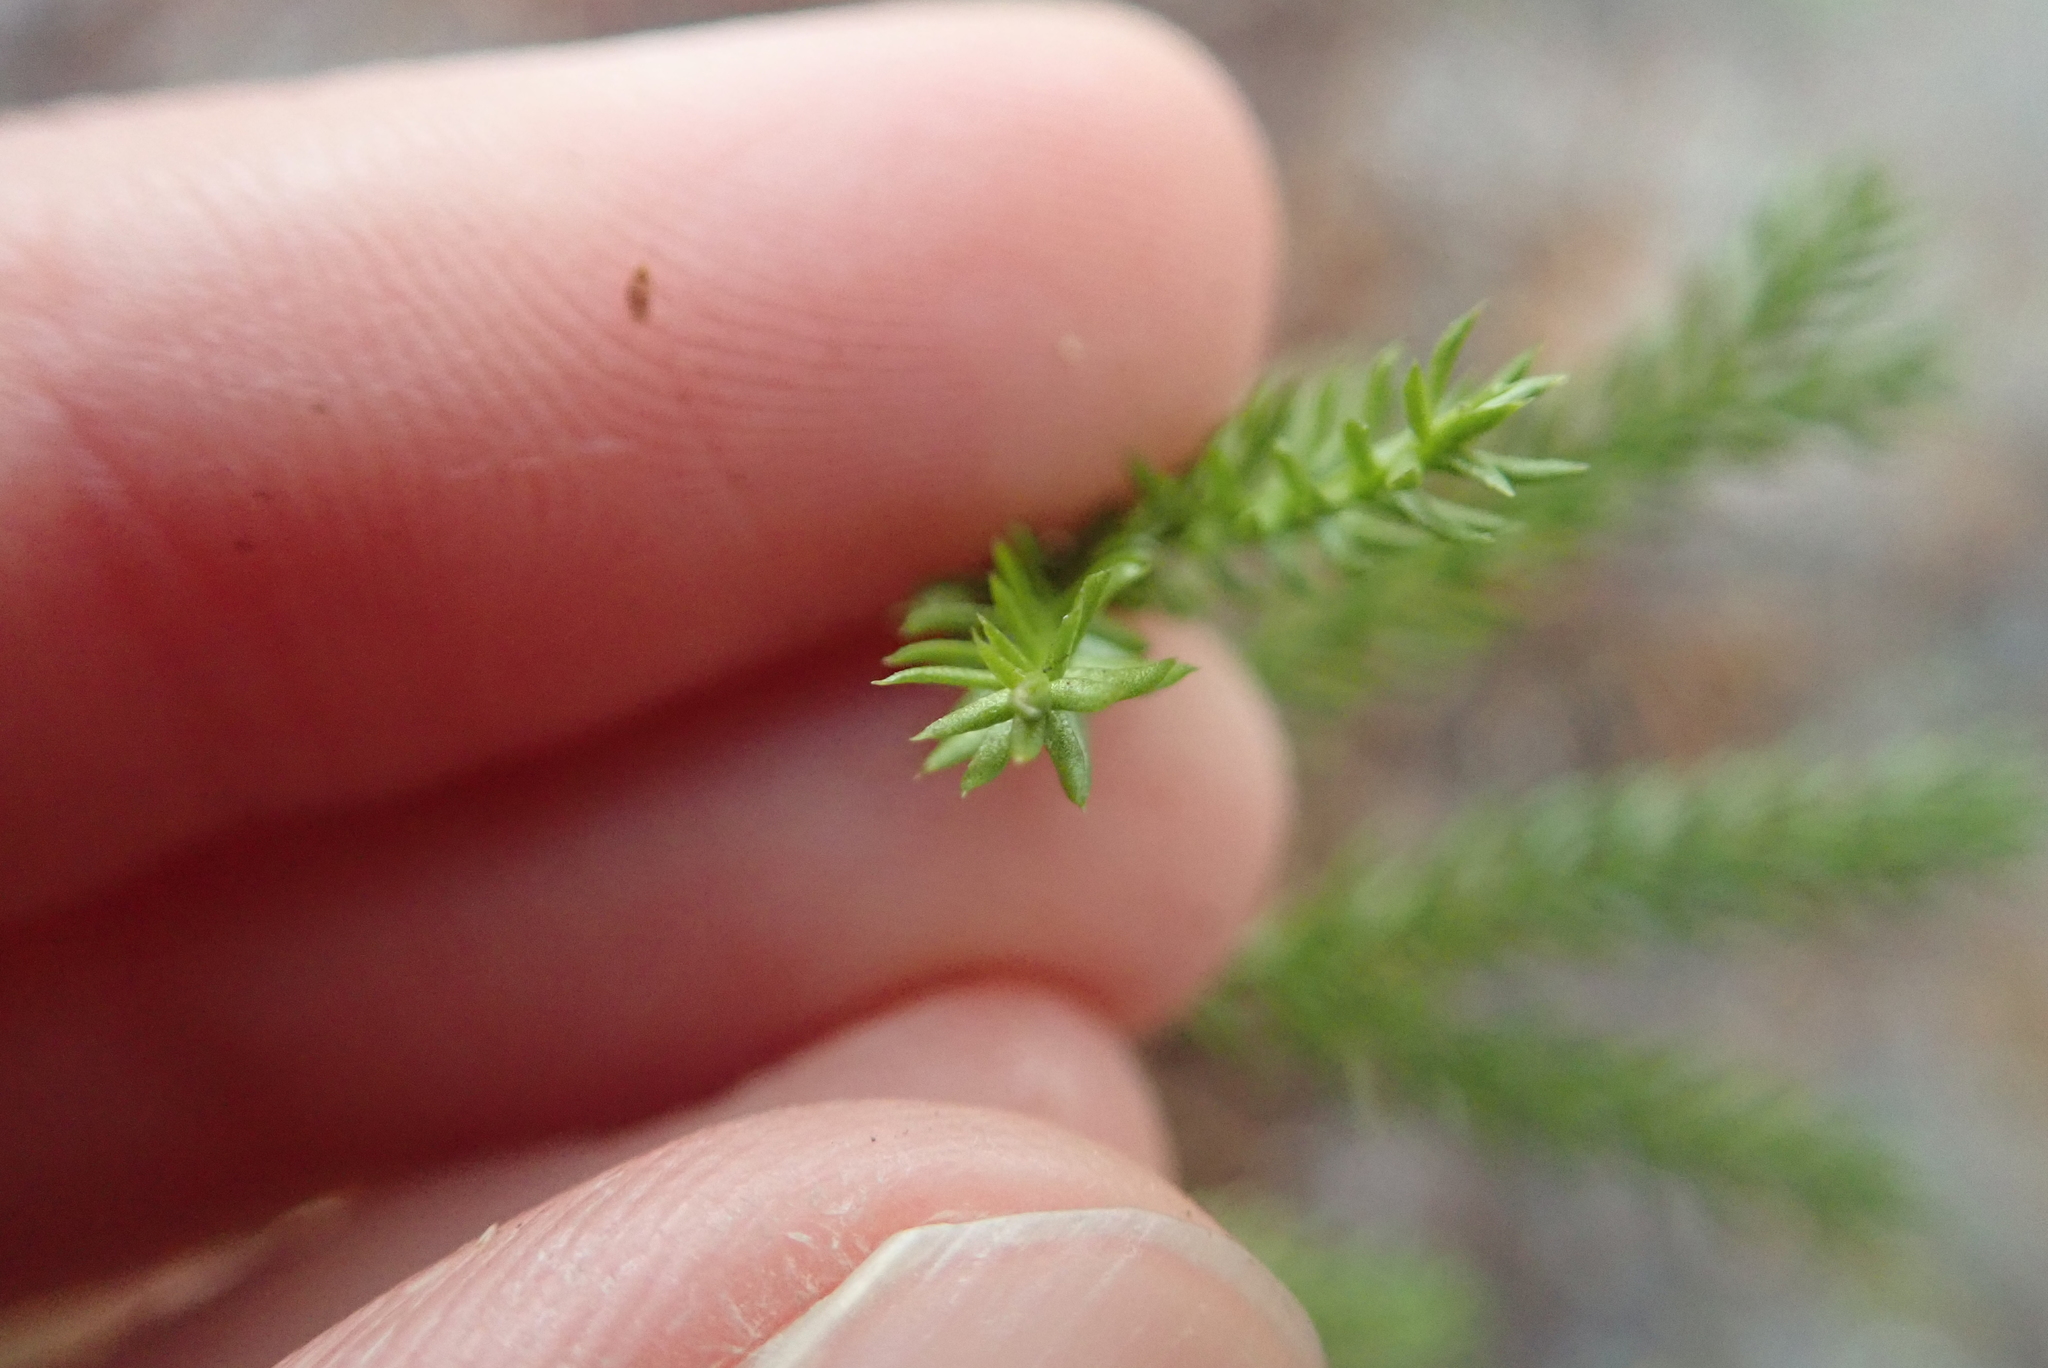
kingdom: Plantae
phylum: Tracheophyta
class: Lycopodiopsida
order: Lycopodiales
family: Lycopodiaceae
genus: Dendrolycopodium
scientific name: Dendrolycopodium dendroideum
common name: Northern tree-clubmoss
